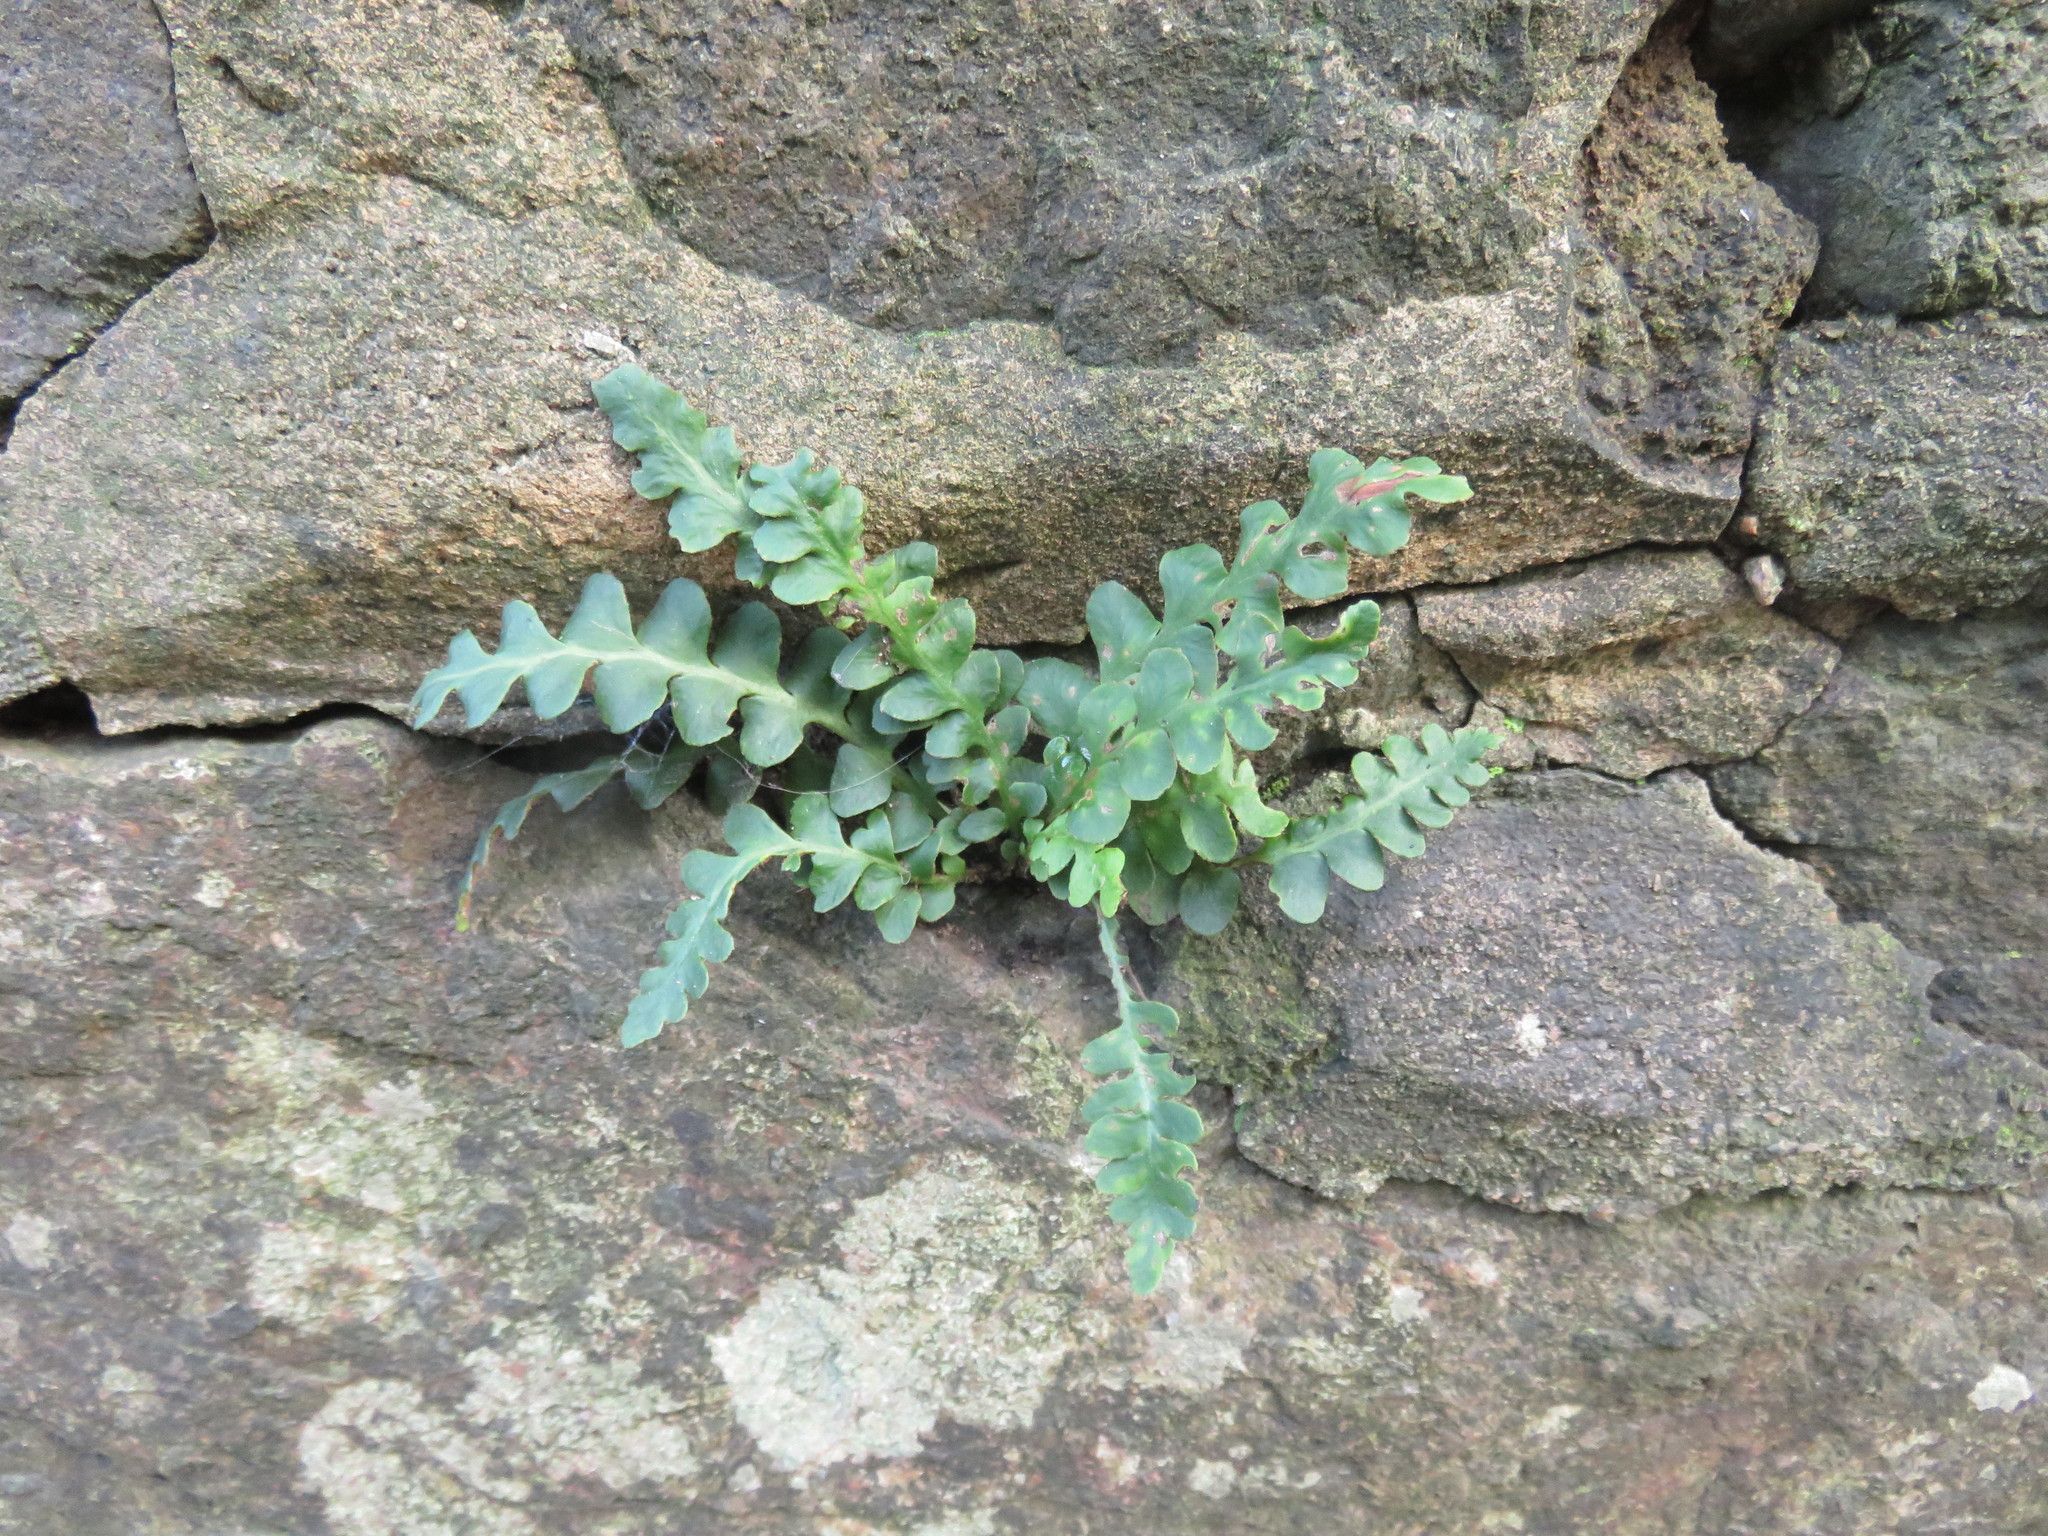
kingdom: Plantae
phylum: Tracheophyta
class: Polypodiopsida
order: Polypodiales
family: Aspleniaceae
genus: Asplenium
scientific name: Asplenium ceterach
